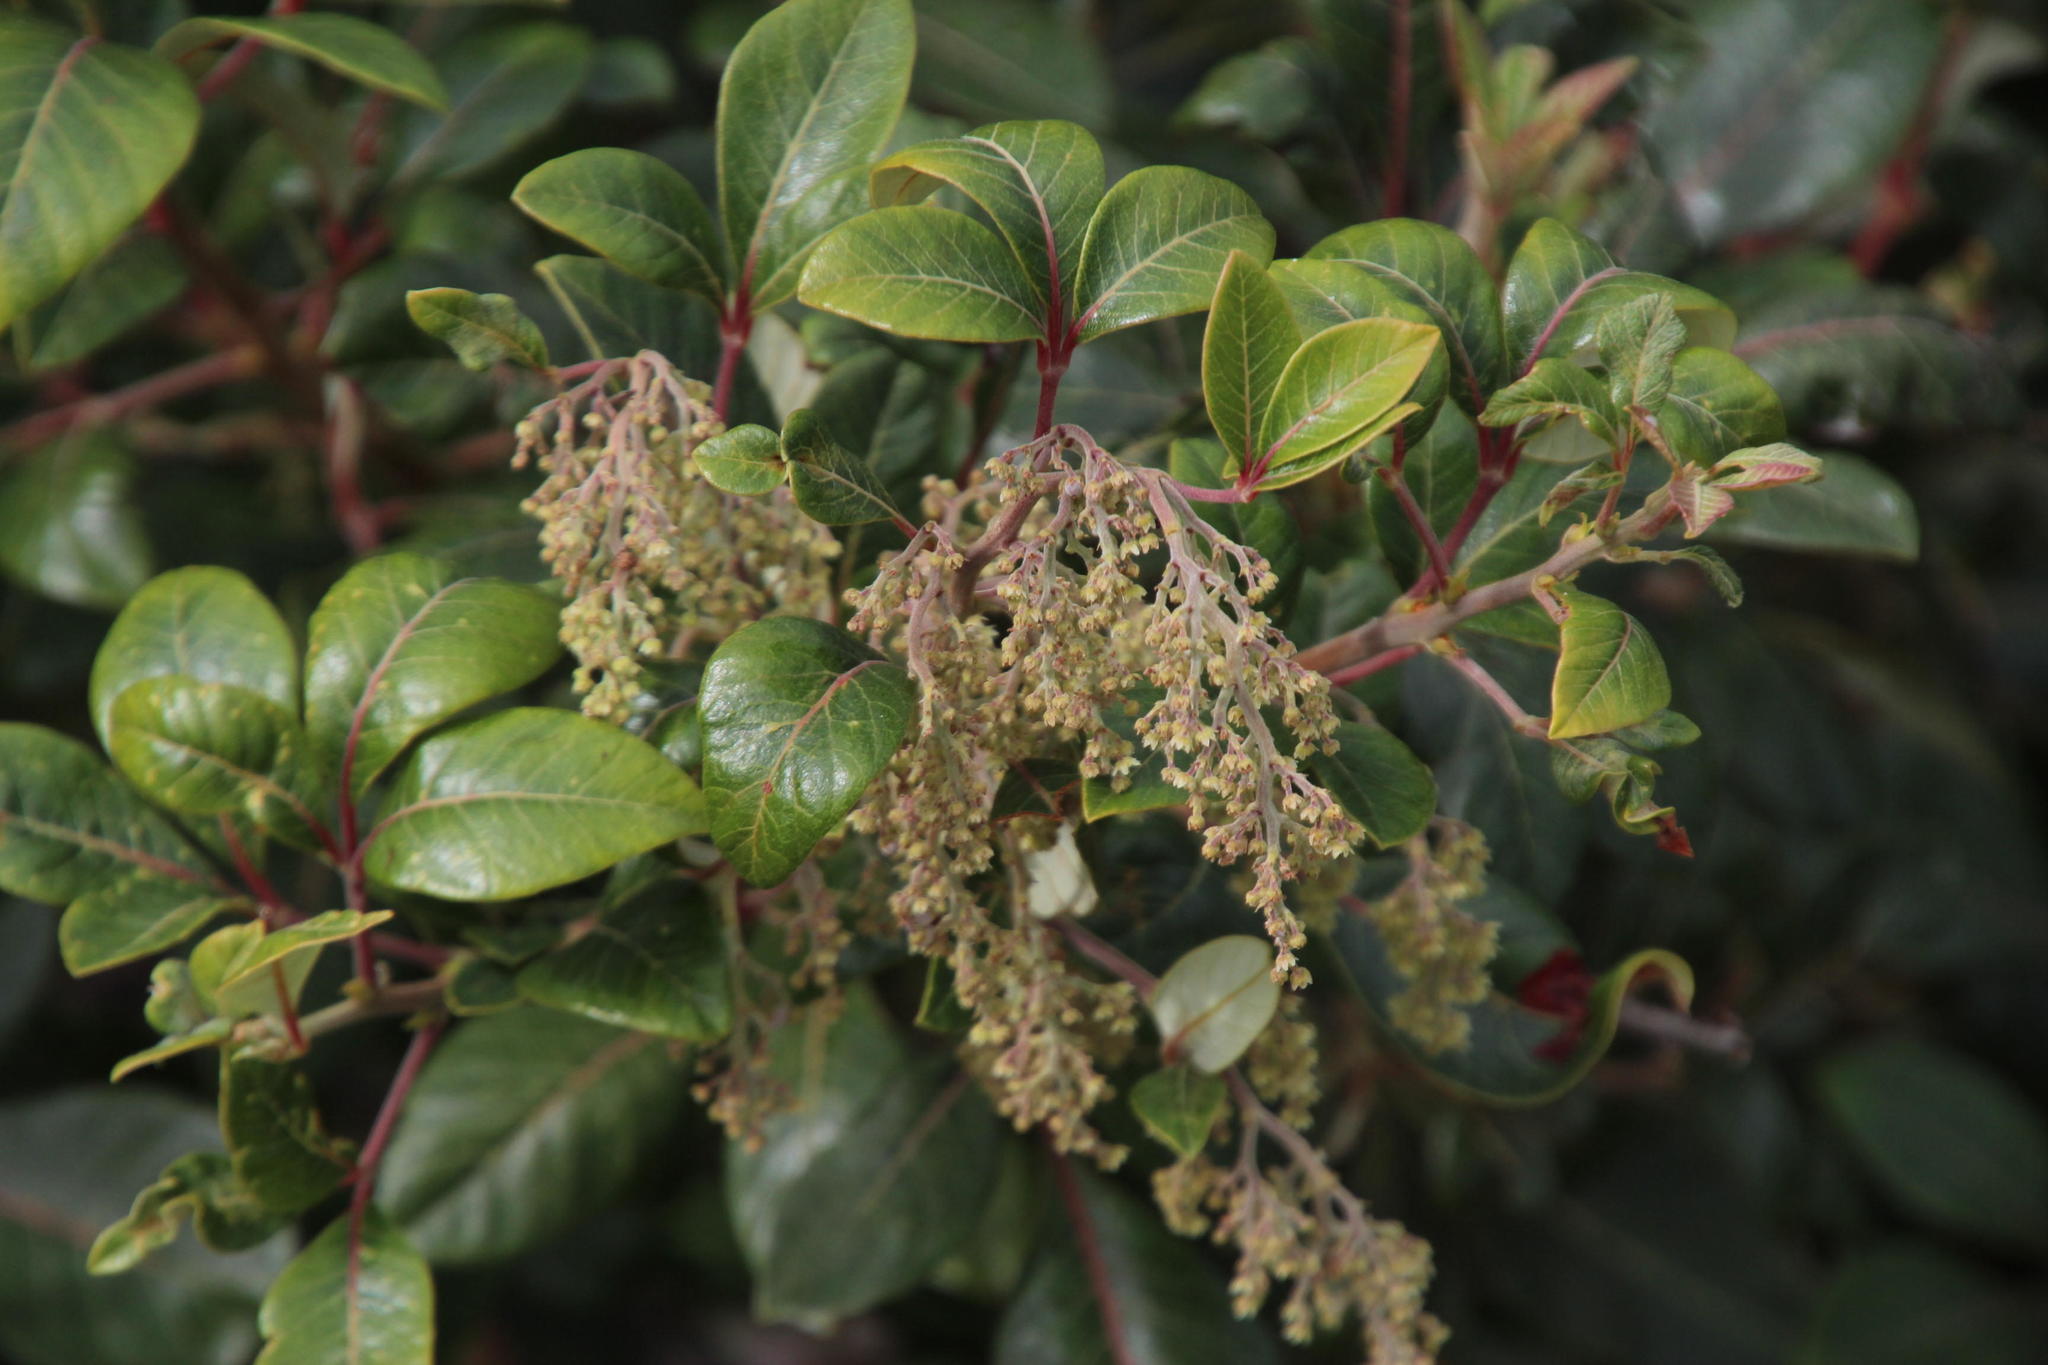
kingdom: Plantae
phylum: Tracheophyta
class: Magnoliopsida
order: Sapindales
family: Anacardiaceae
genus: Searsia
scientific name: Searsia tomentosa
